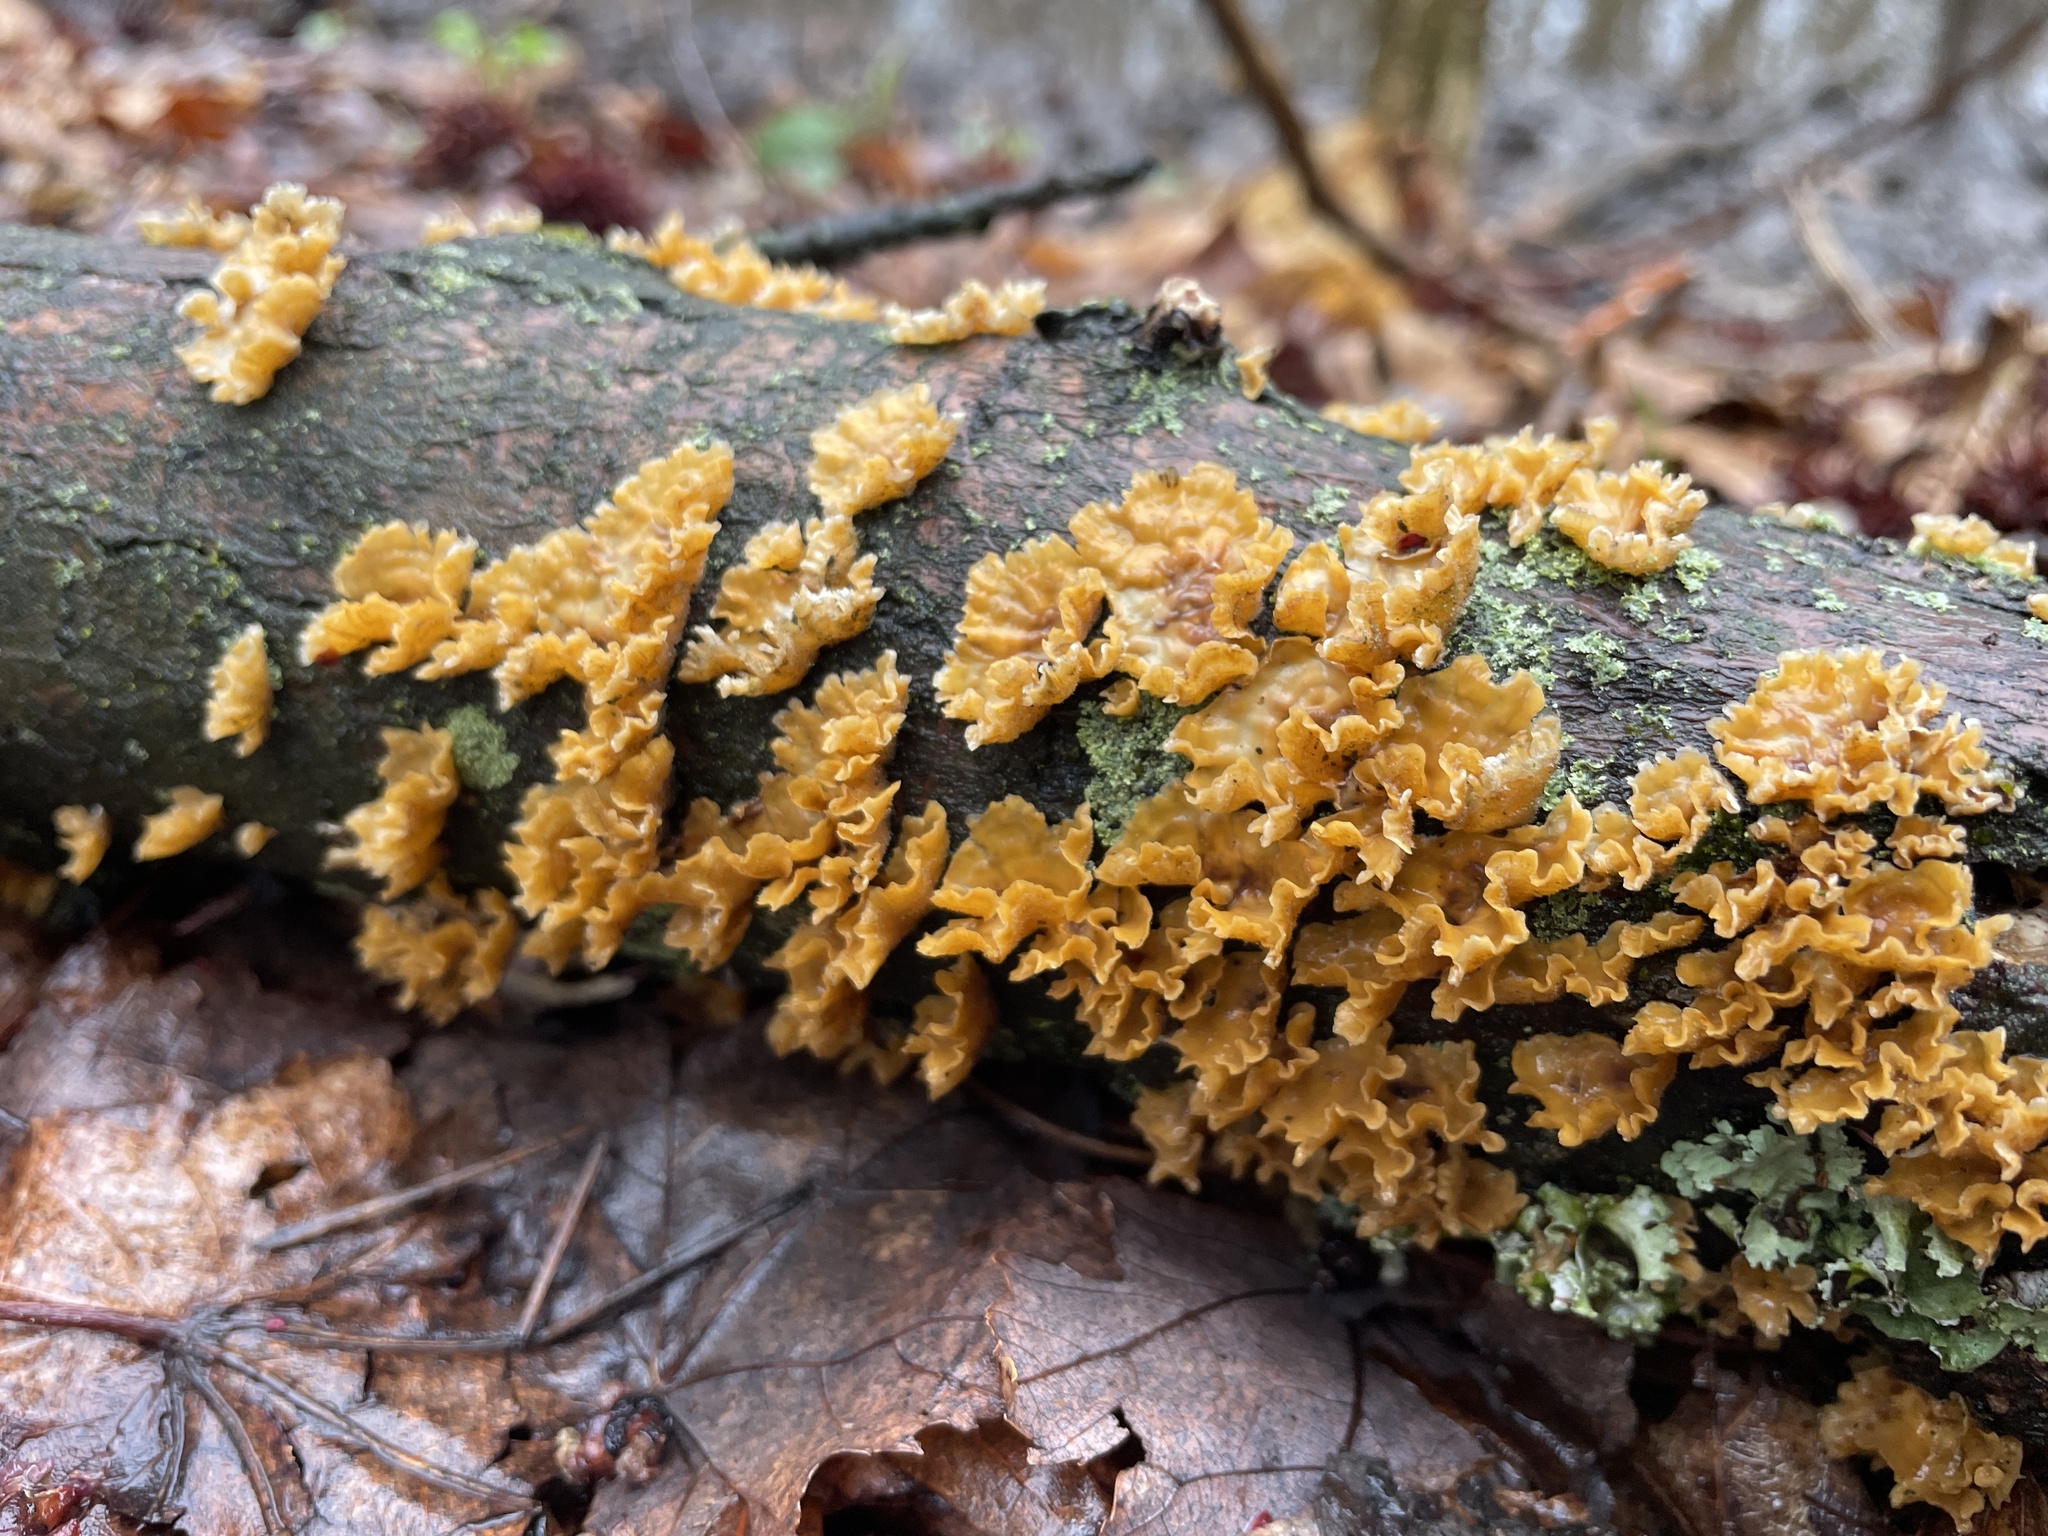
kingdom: Fungi
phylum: Basidiomycota
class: Agaricomycetes
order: Russulales
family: Stereaceae
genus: Stereum
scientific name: Stereum complicatum
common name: Crowded parchment
